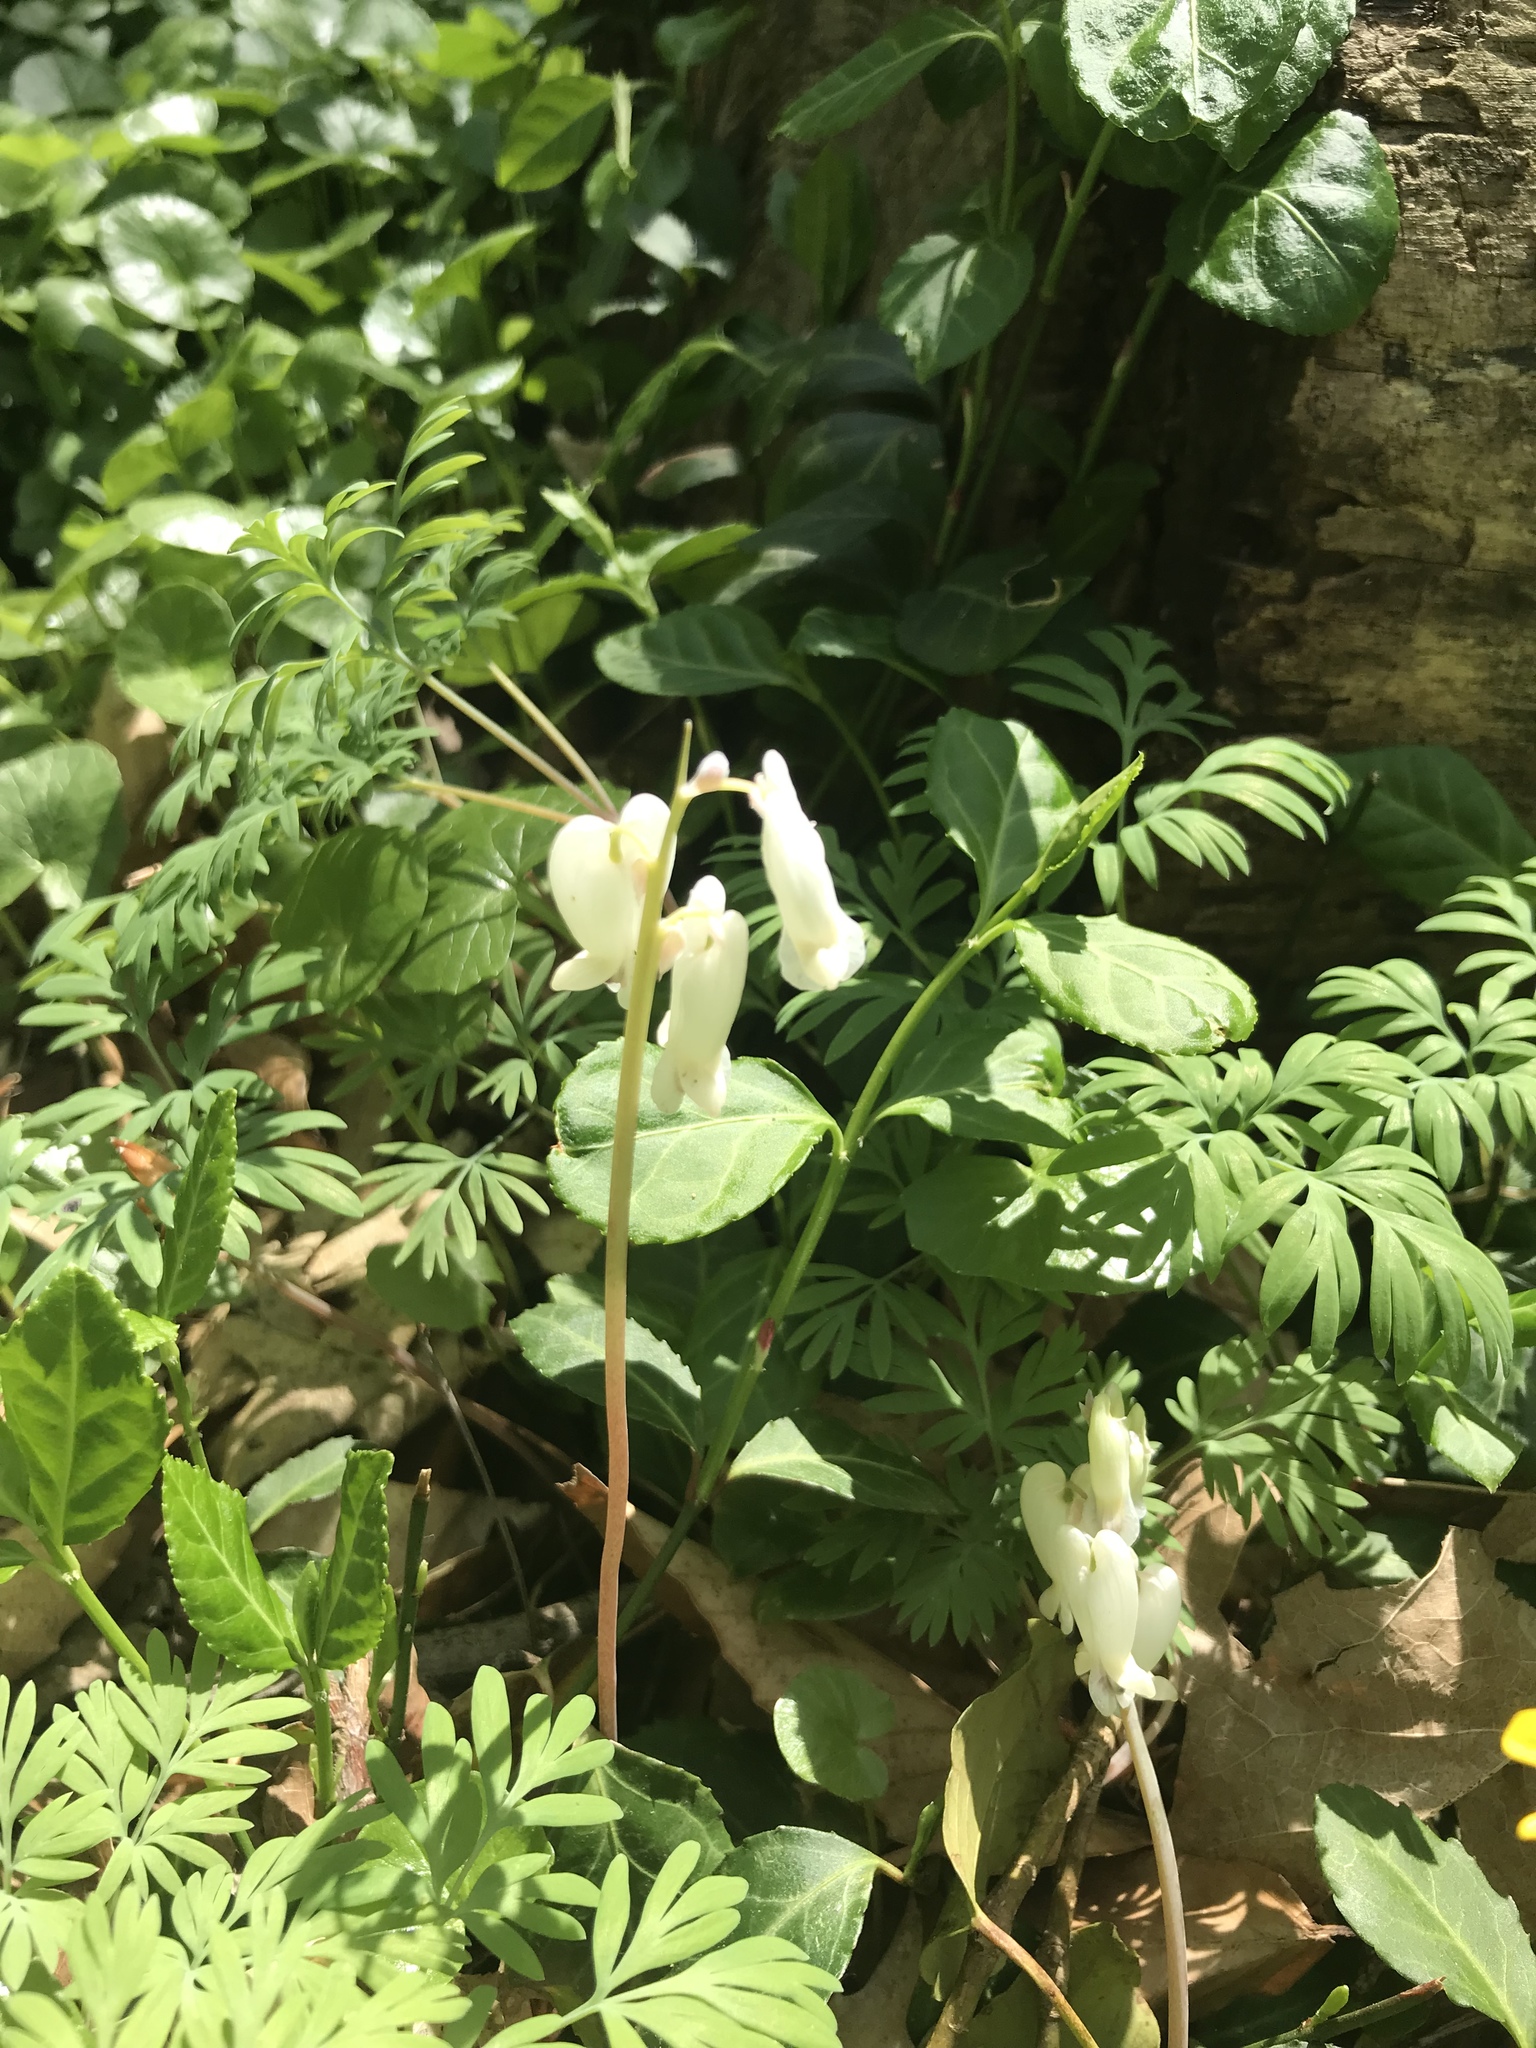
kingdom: Plantae
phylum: Tracheophyta
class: Magnoliopsida
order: Ranunculales
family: Papaveraceae
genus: Dicentra
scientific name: Dicentra canadensis
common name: Squirrel-corn
